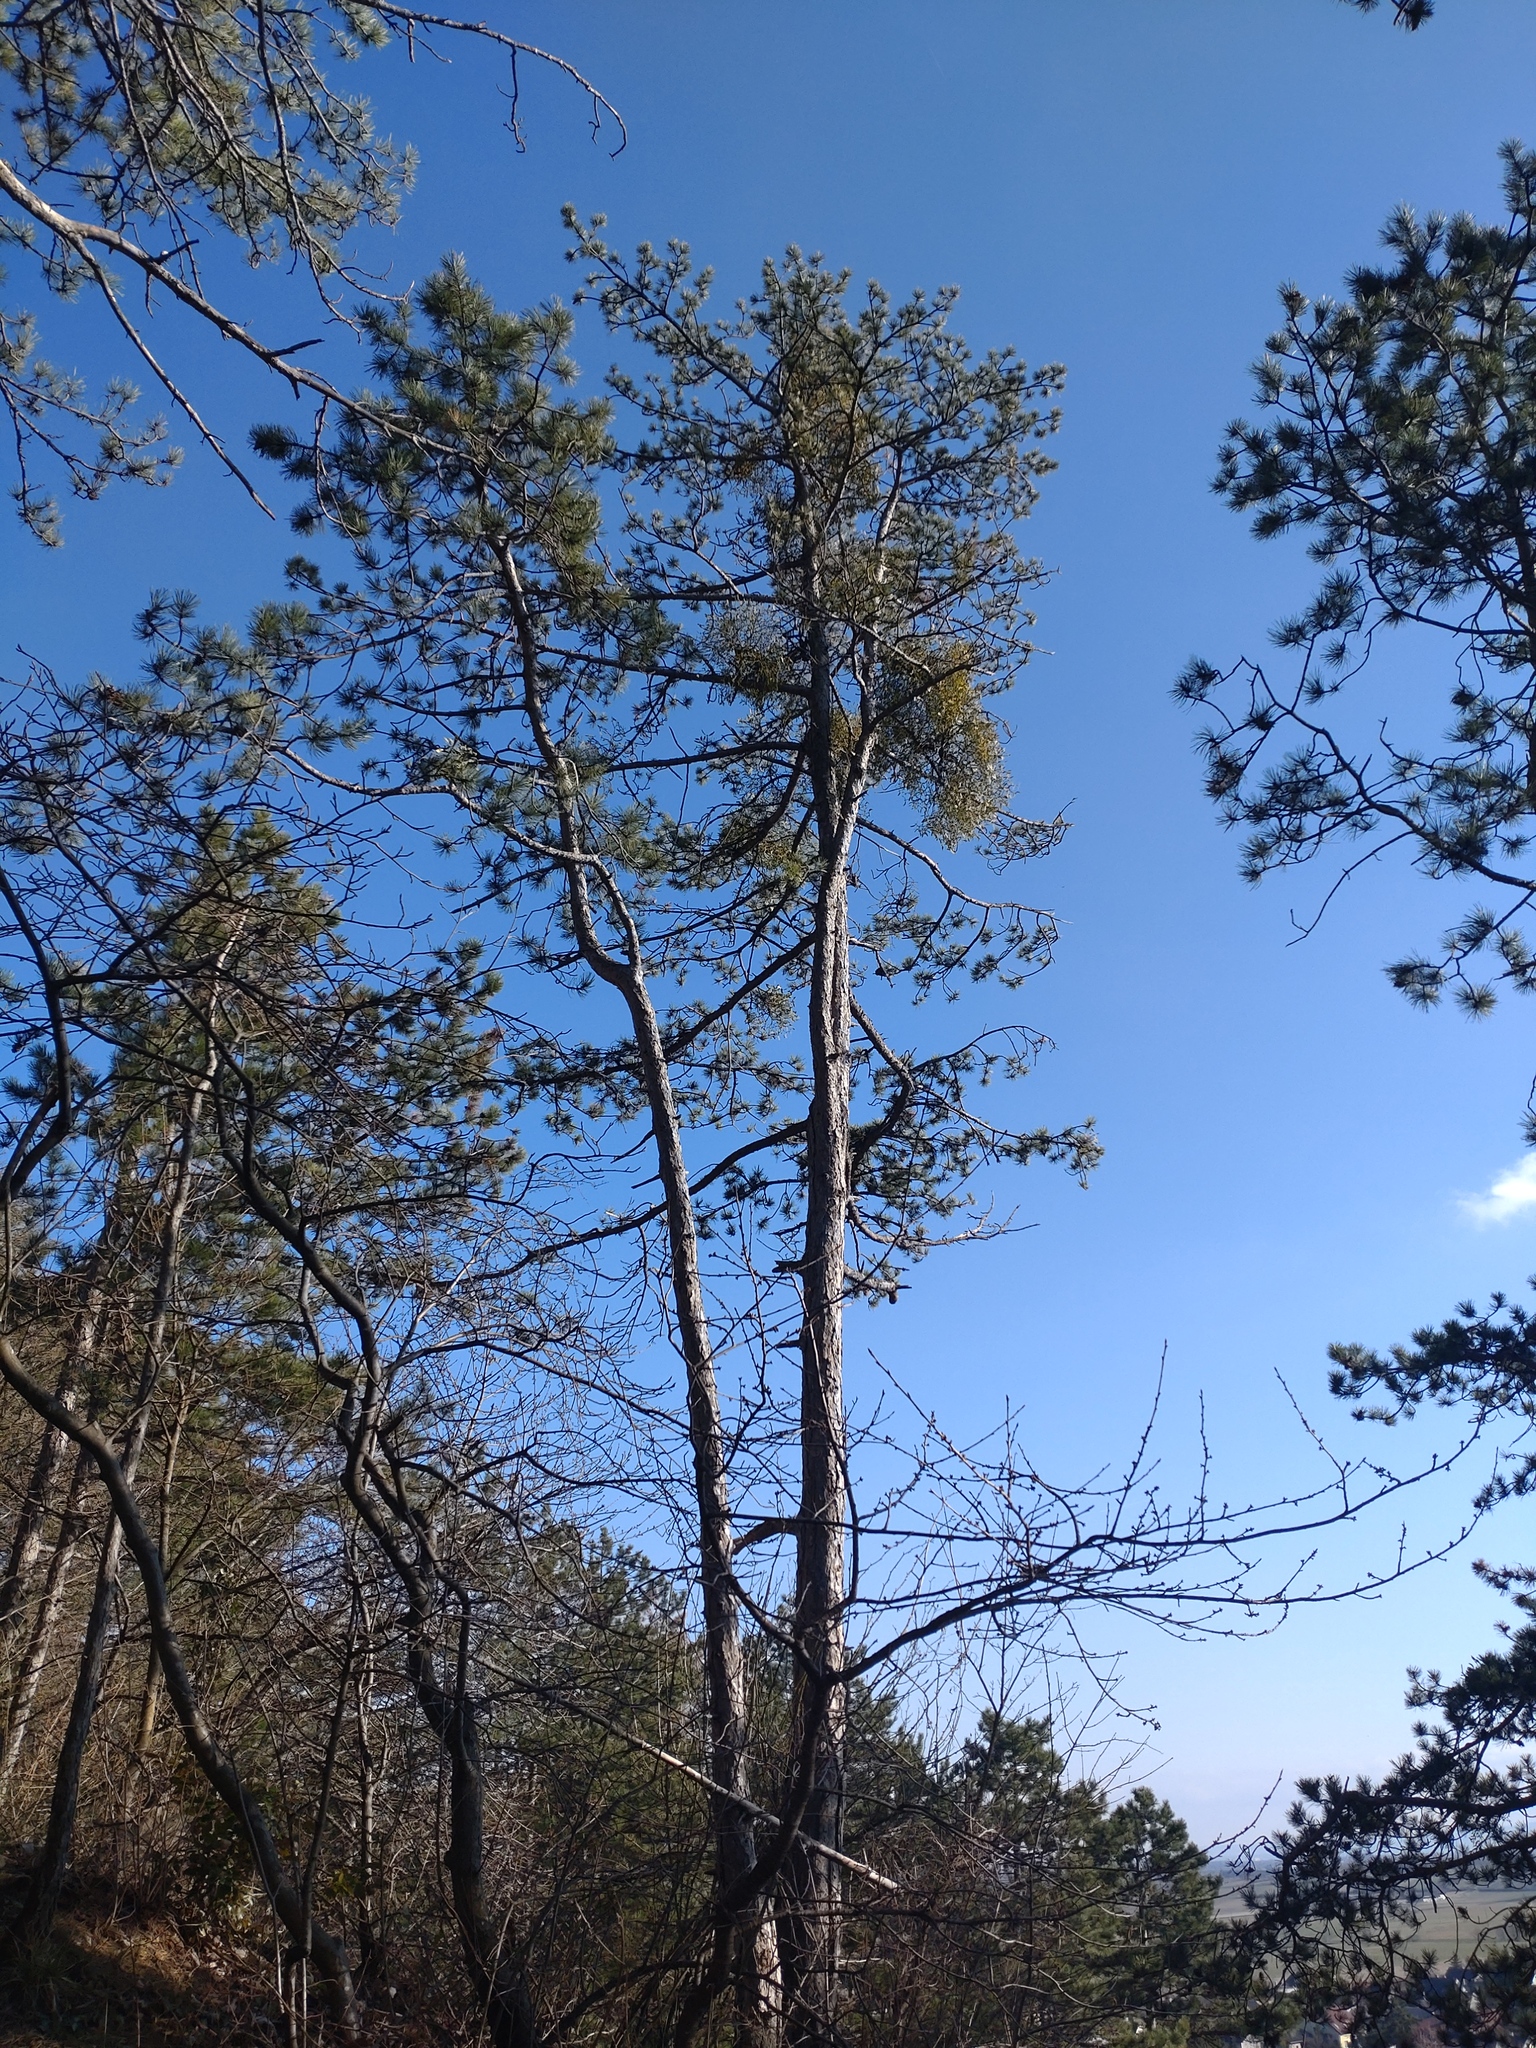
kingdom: Plantae
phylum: Tracheophyta
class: Pinopsida
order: Pinales
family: Pinaceae
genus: Pinus
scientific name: Pinus nigra
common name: Austrian pine
